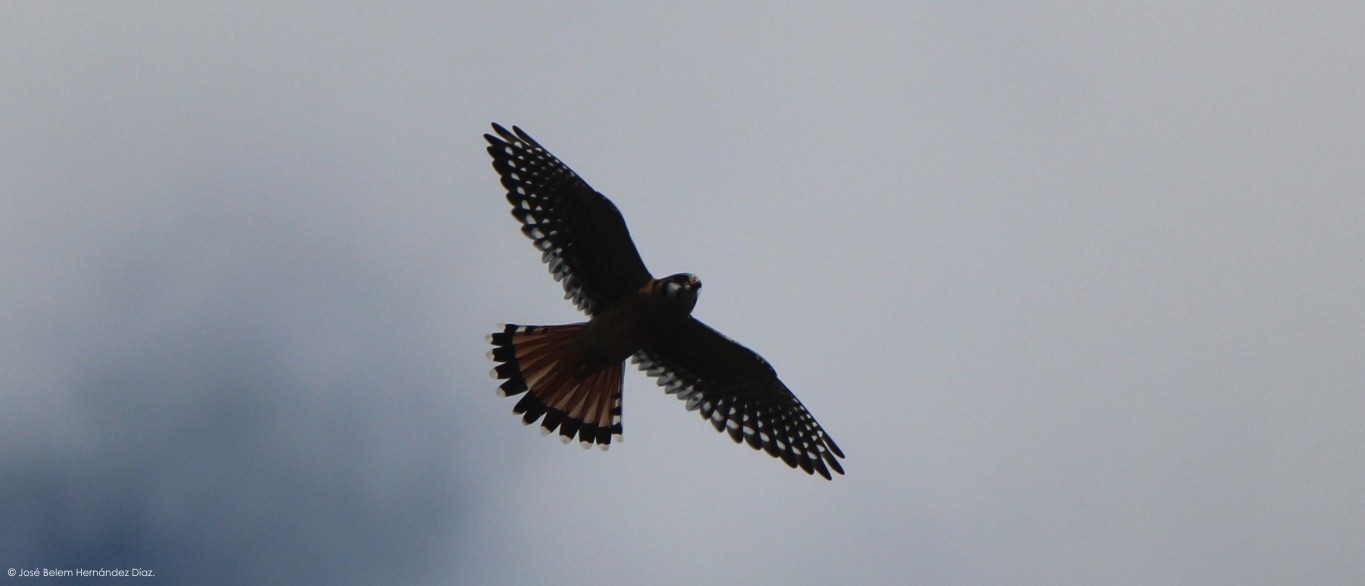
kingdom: Animalia
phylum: Chordata
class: Aves
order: Falconiformes
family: Falconidae
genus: Falco
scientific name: Falco sparverius
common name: American kestrel
